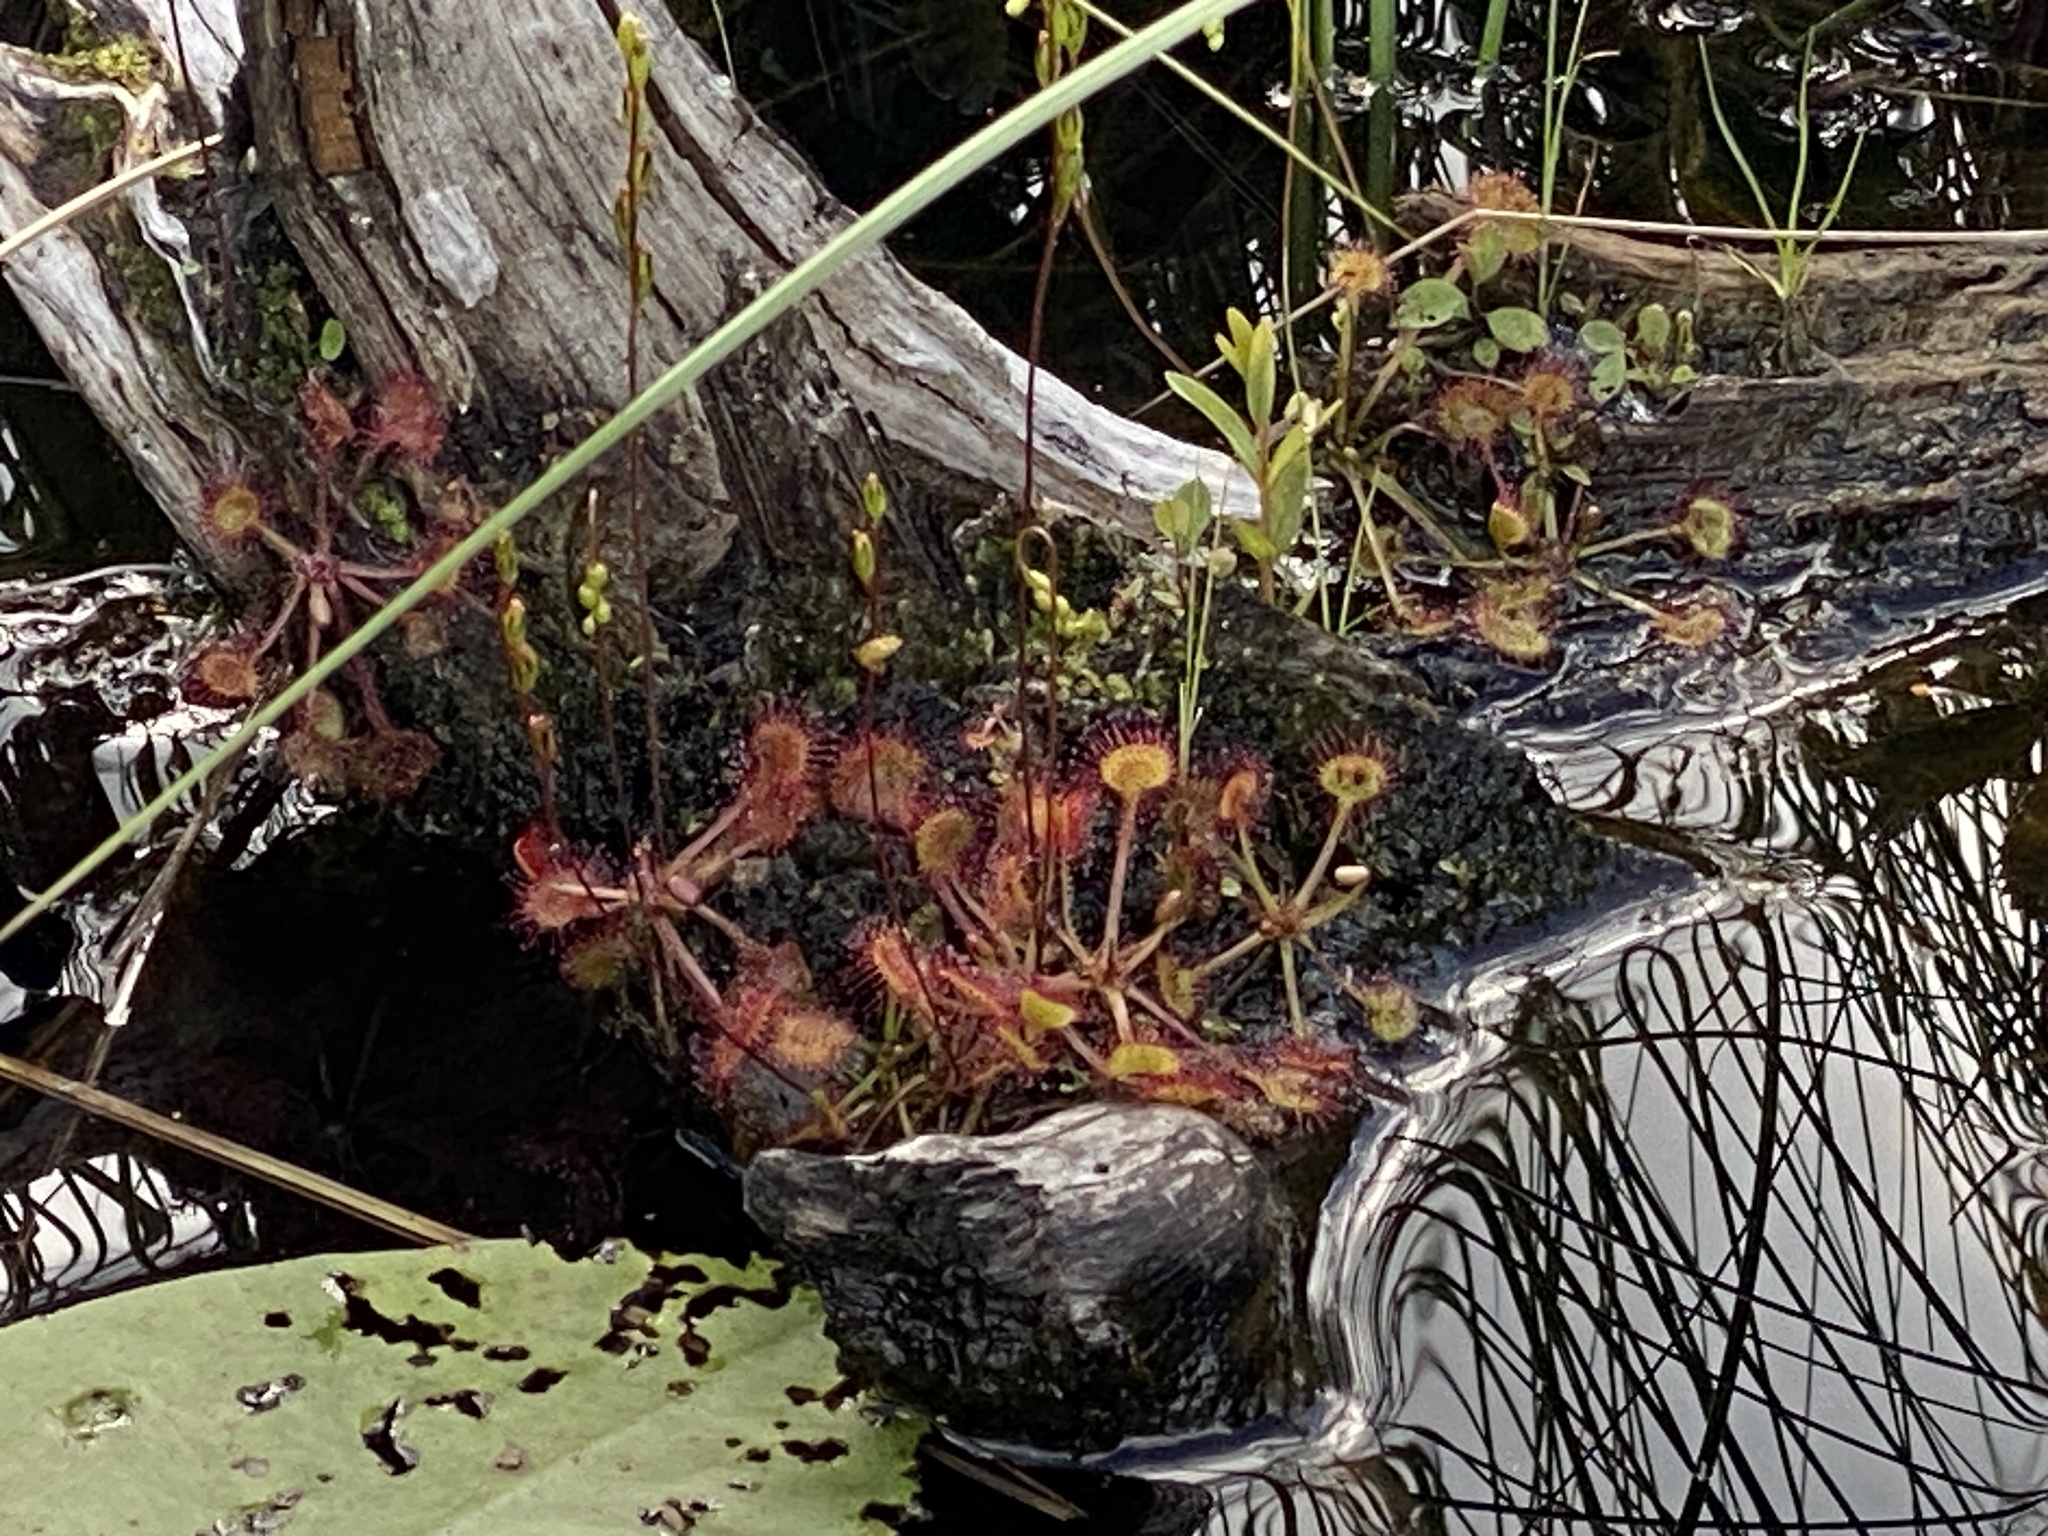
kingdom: Plantae
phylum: Tracheophyta
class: Magnoliopsida
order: Caryophyllales
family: Droseraceae
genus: Drosera
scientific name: Drosera rotundifolia
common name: Round-leaved sundew
